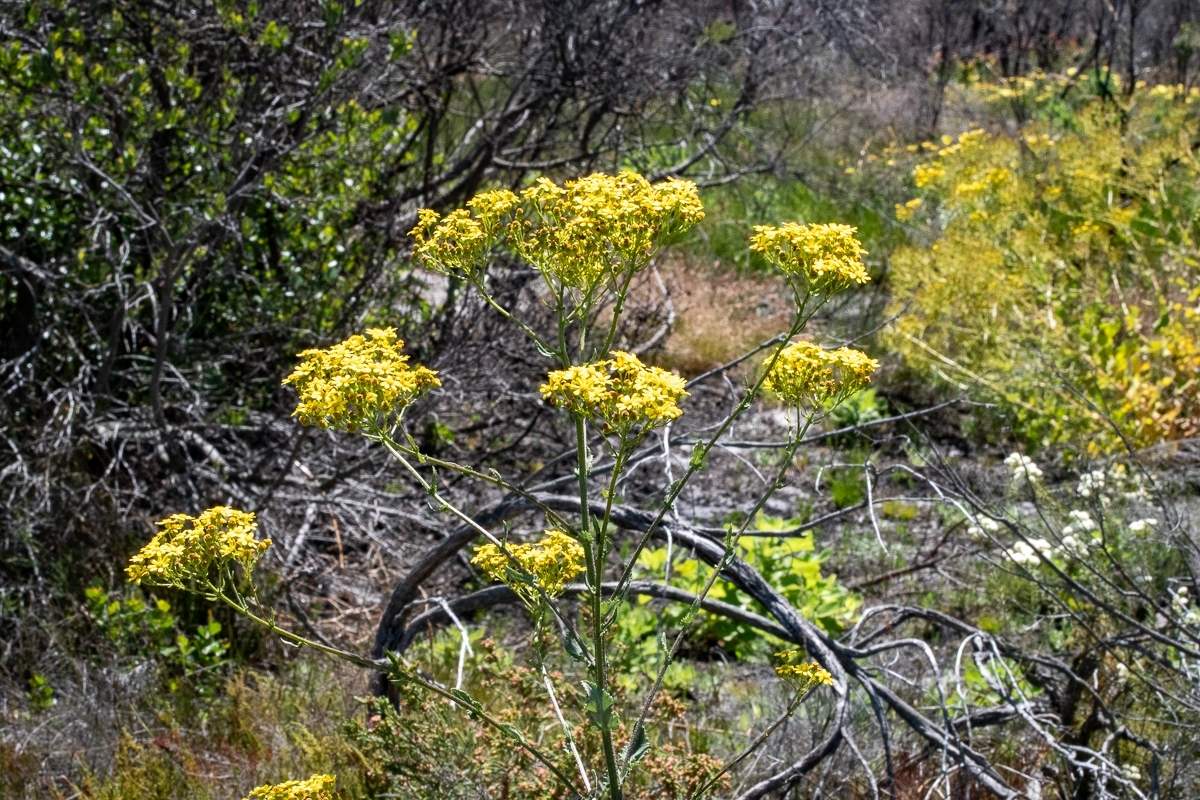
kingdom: Plantae
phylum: Tracheophyta
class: Magnoliopsida
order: Asterales
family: Asteraceae
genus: Senecio
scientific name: Senecio rigidus
